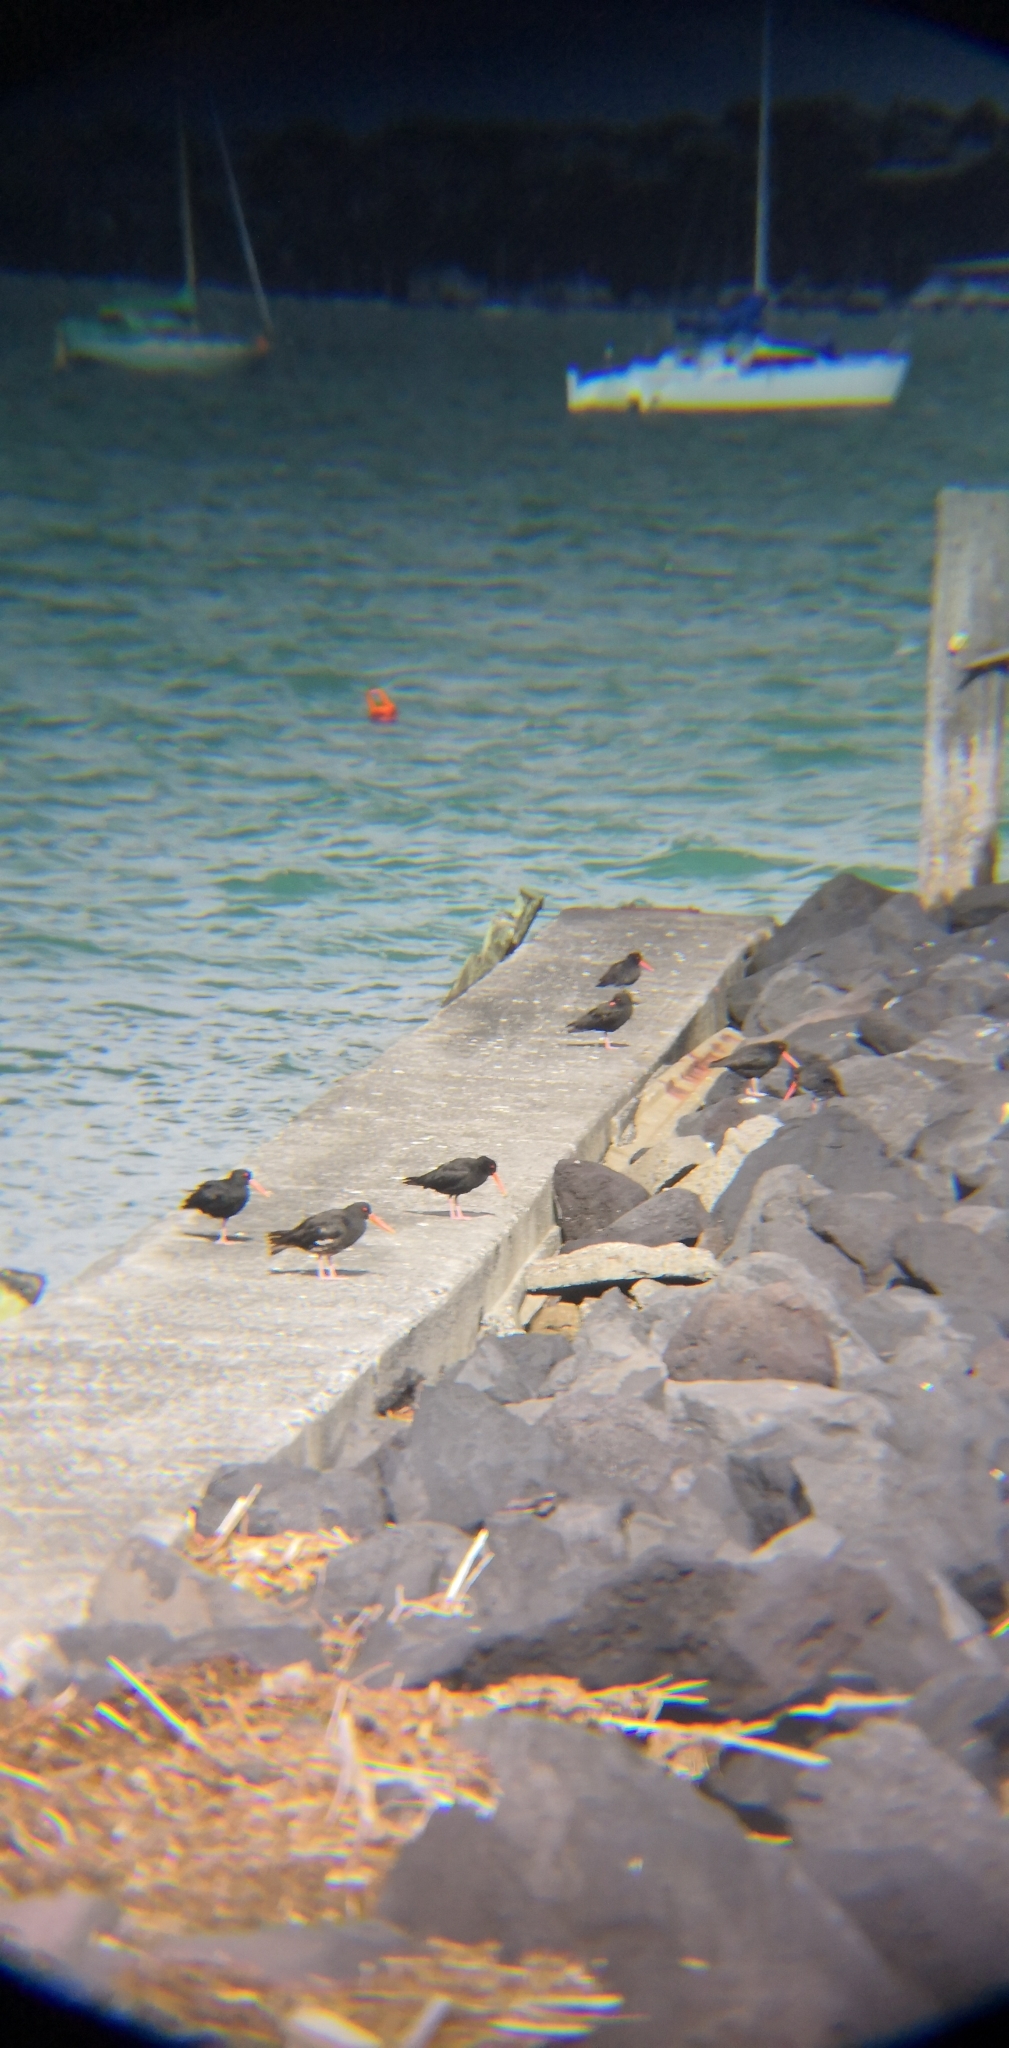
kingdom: Animalia
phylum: Chordata
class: Aves
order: Charadriiformes
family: Haematopodidae
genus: Haematopus
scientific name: Haematopus unicolor
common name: Variable oystercatcher
